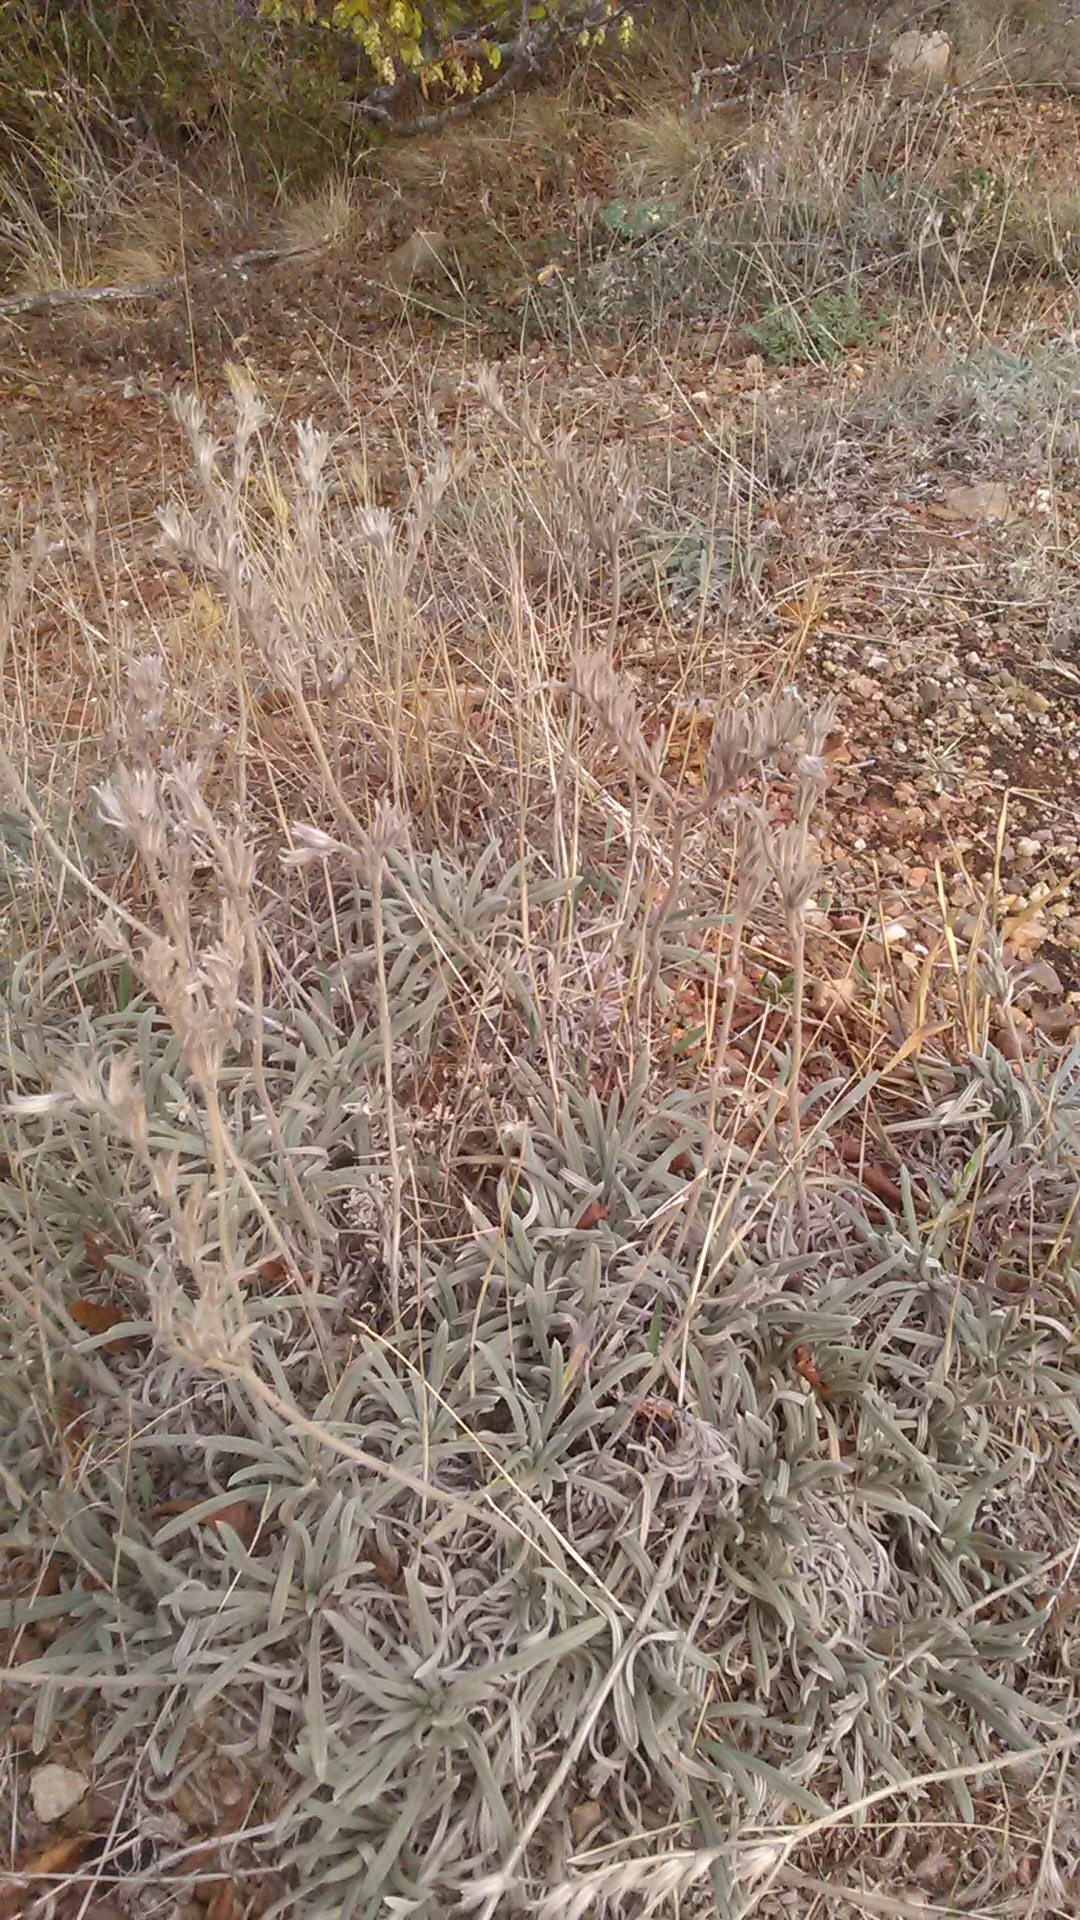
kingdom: Plantae
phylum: Tracheophyta
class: Magnoliopsida
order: Boraginales
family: Boraginaceae
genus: Onosma
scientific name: Onosma taurica
